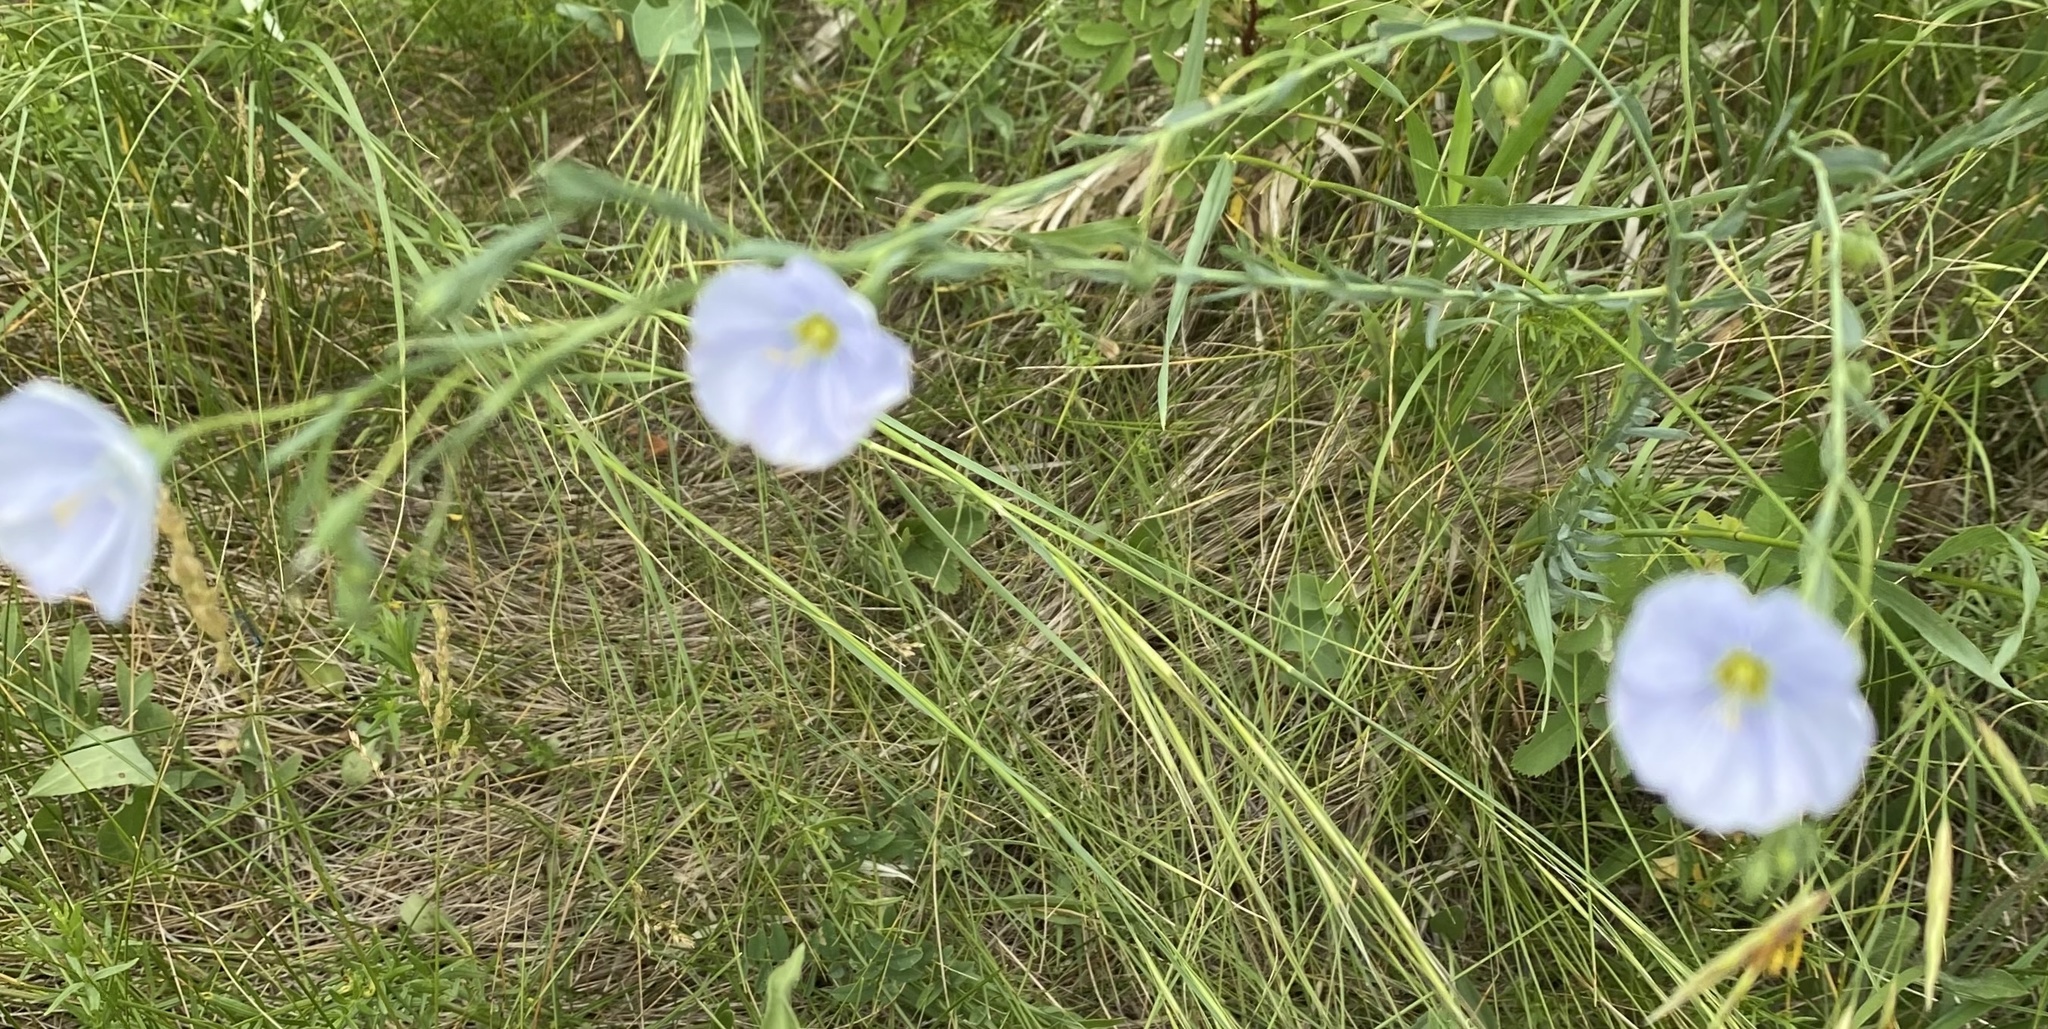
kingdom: Plantae
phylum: Tracheophyta
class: Magnoliopsida
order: Malpighiales
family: Linaceae
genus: Linum
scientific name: Linum lewisii
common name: Prairie flax
